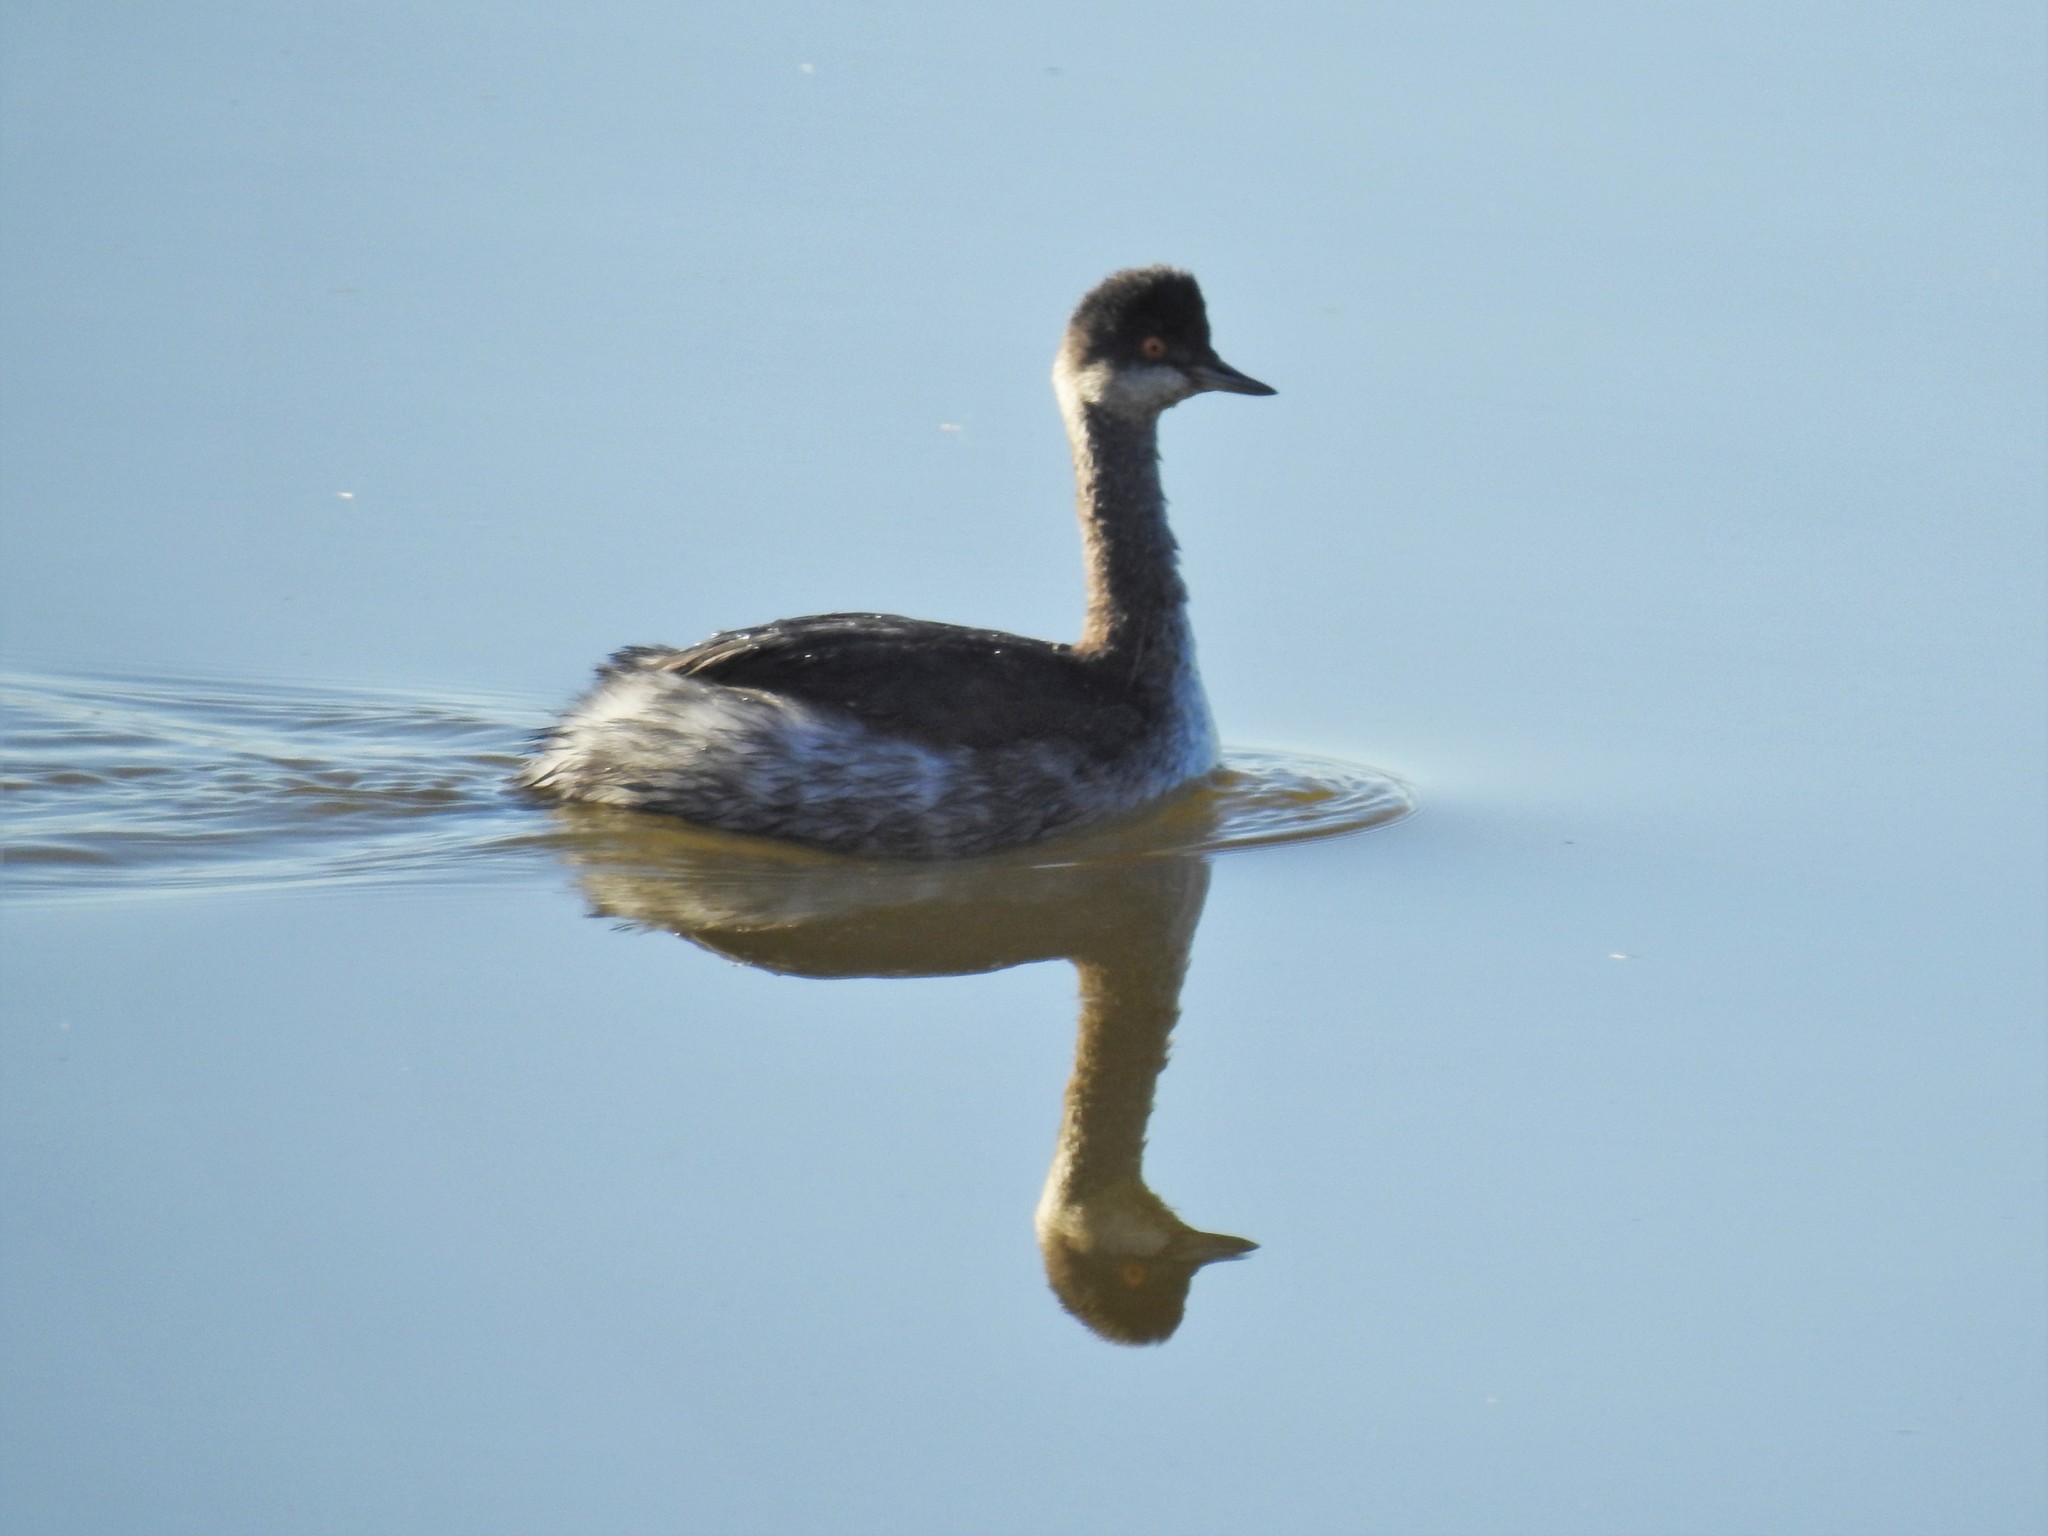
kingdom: Animalia
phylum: Chordata
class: Aves
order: Podicipediformes
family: Podicipedidae
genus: Podiceps
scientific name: Podiceps nigricollis
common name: Black-necked grebe
